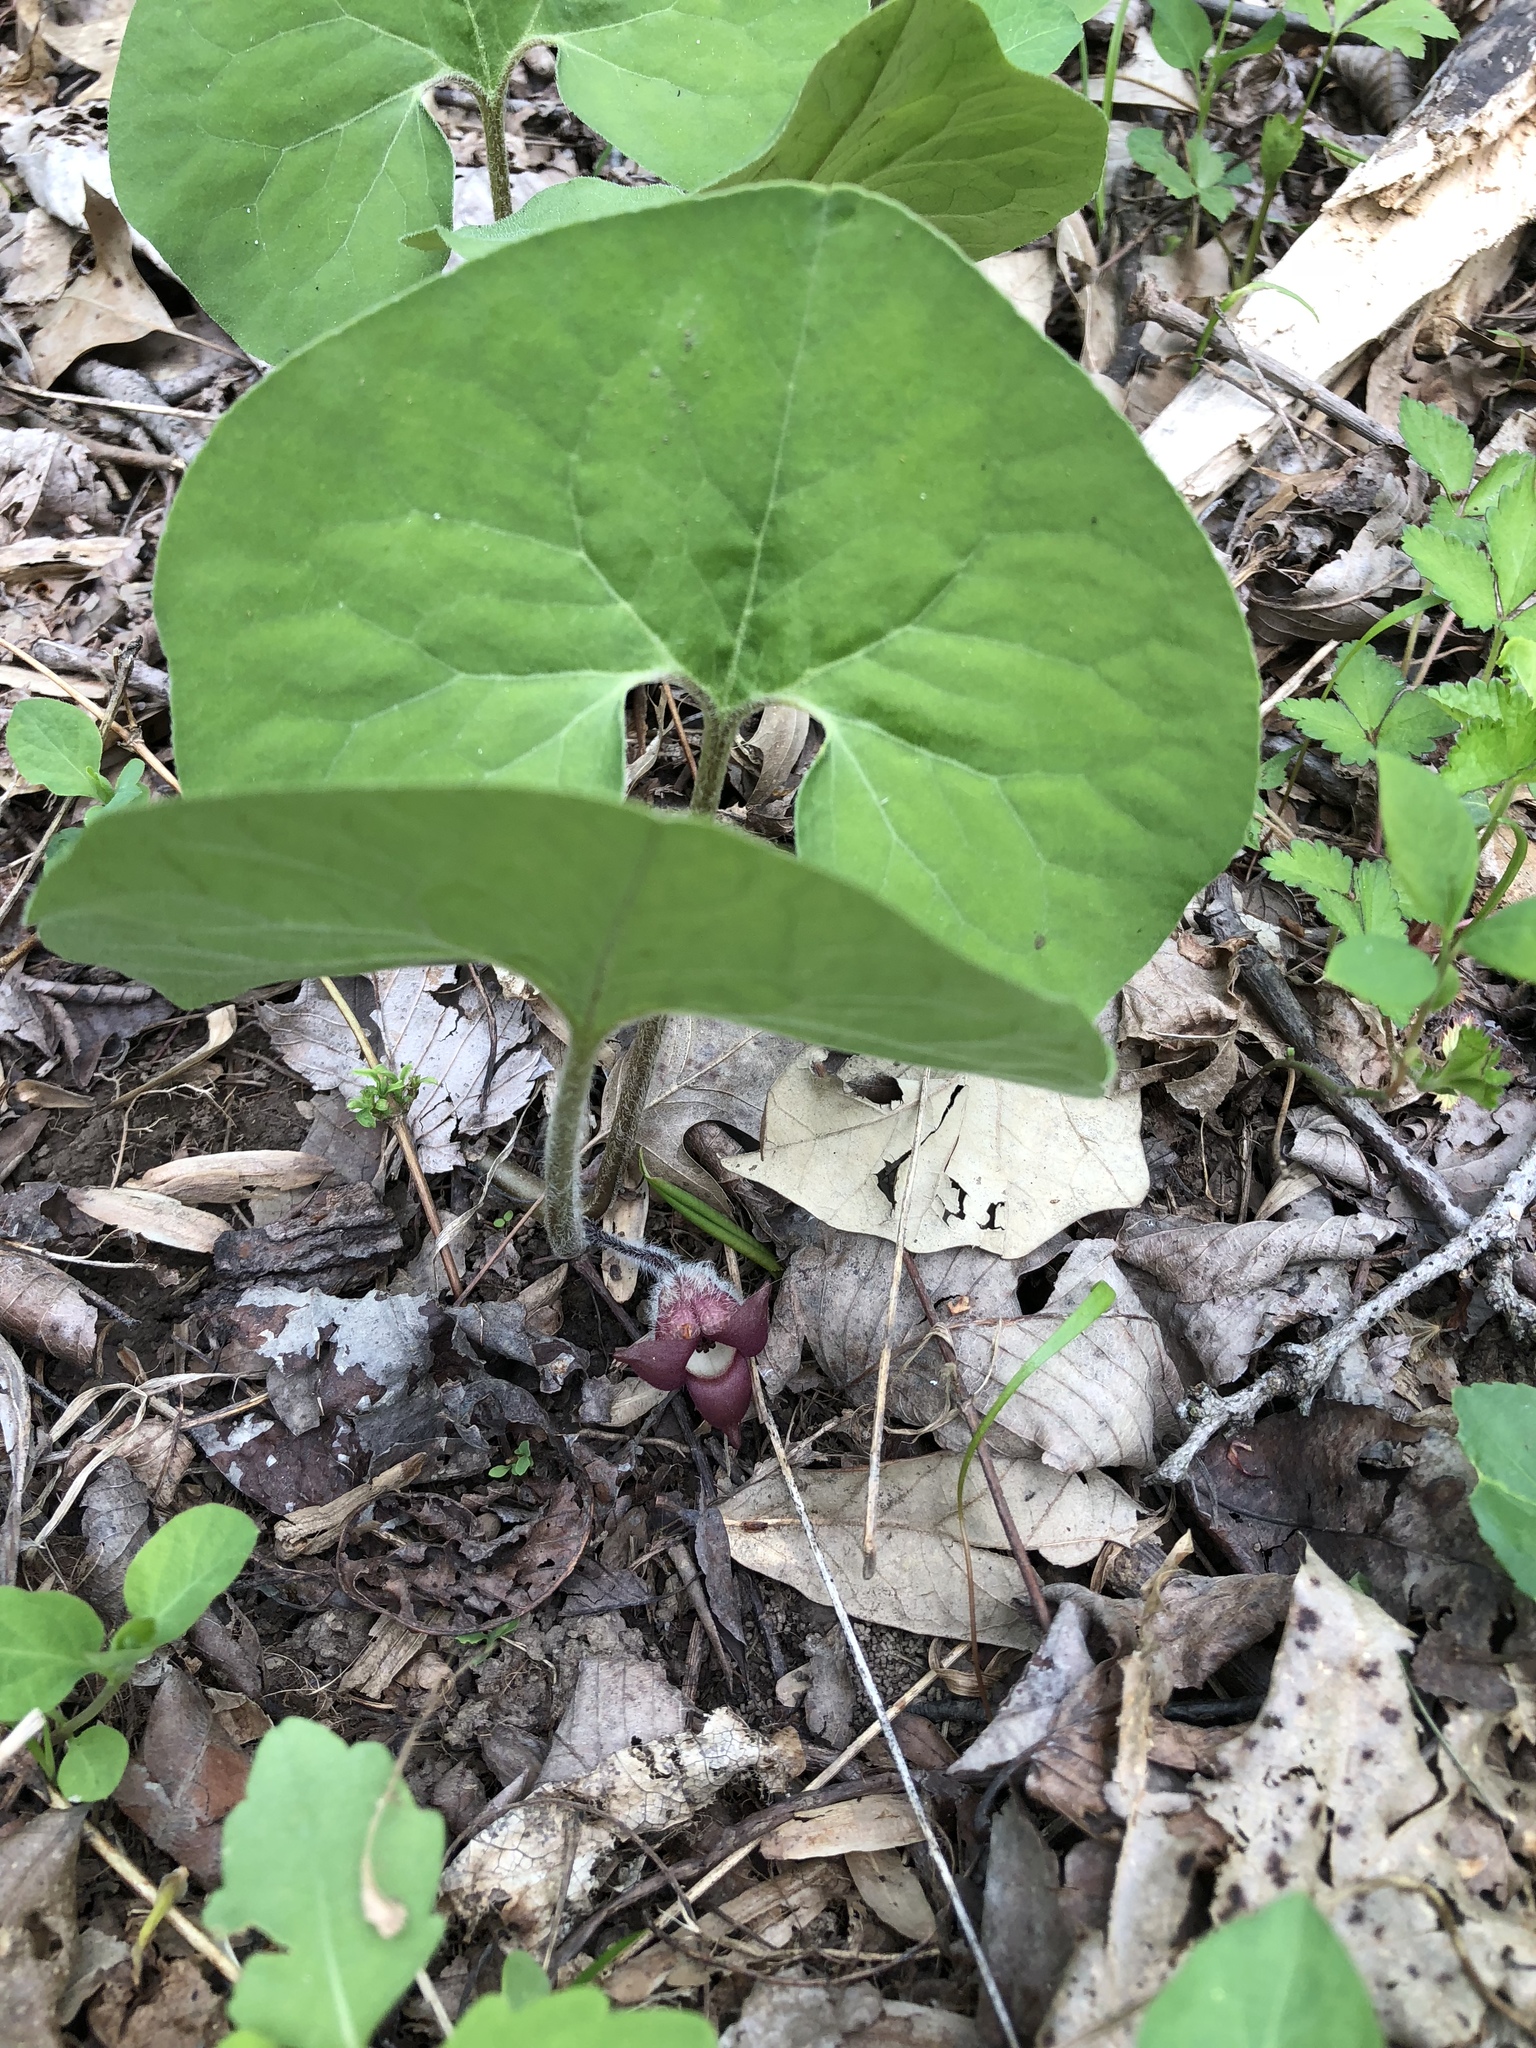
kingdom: Plantae
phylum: Tracheophyta
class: Magnoliopsida
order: Piperales
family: Aristolochiaceae
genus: Asarum
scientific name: Asarum canadense
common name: Wild ginger
